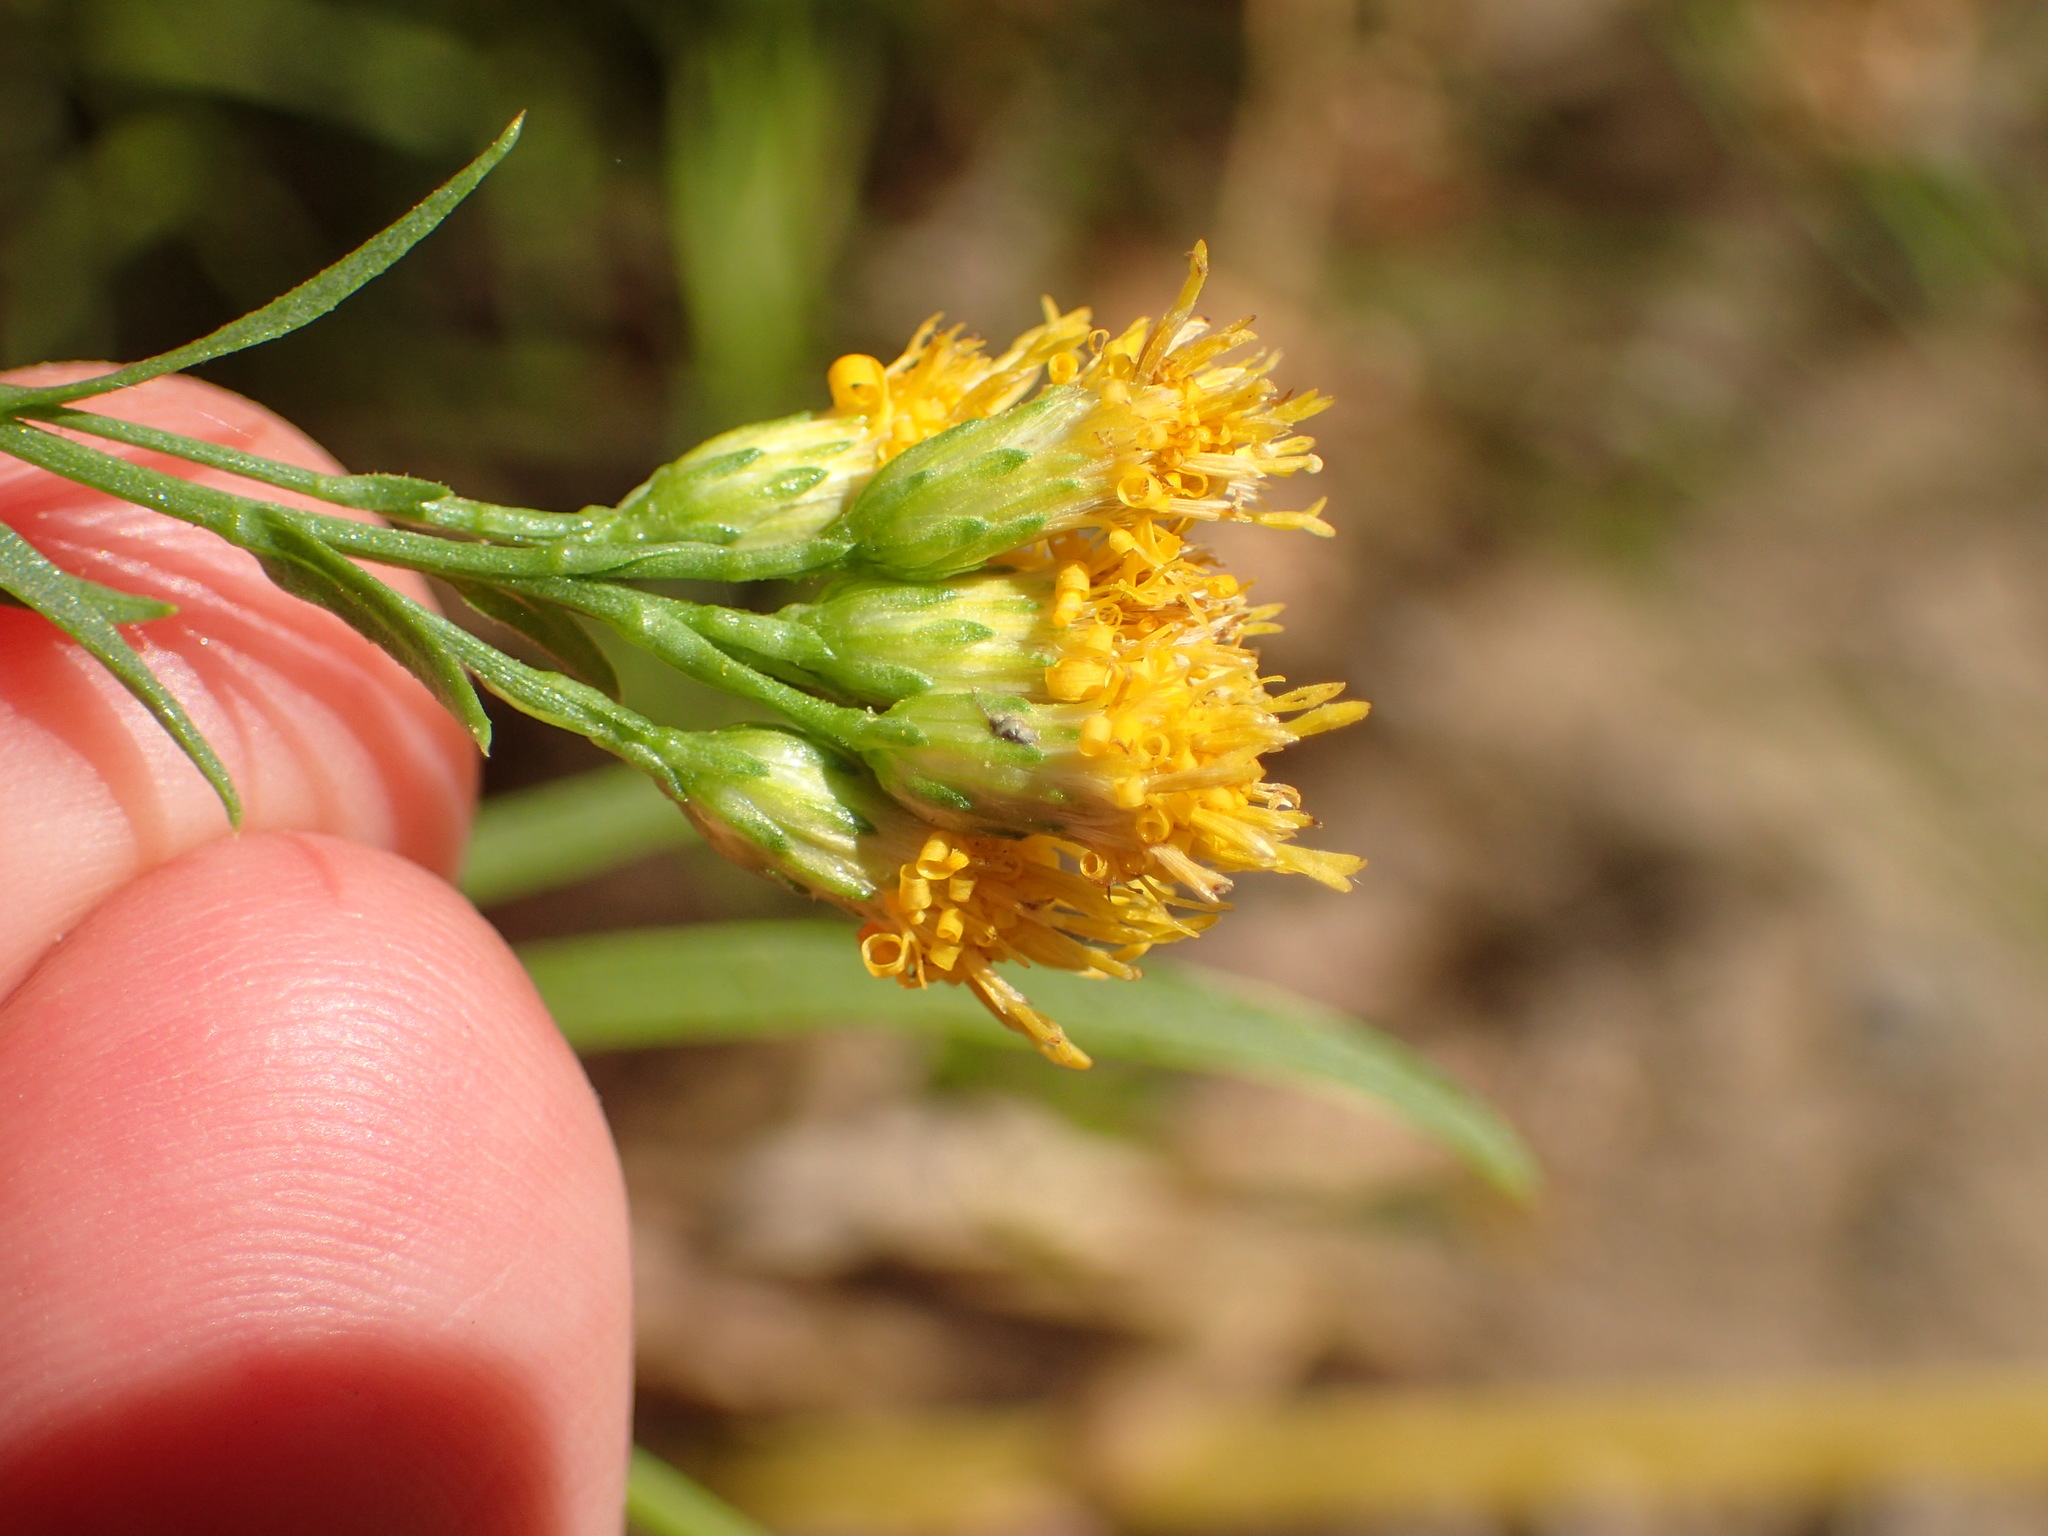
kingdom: Plantae
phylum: Tracheophyta
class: Magnoliopsida
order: Asterales
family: Asteraceae
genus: Euthamia
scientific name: Euthamia occidentalis
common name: Western goldentop
